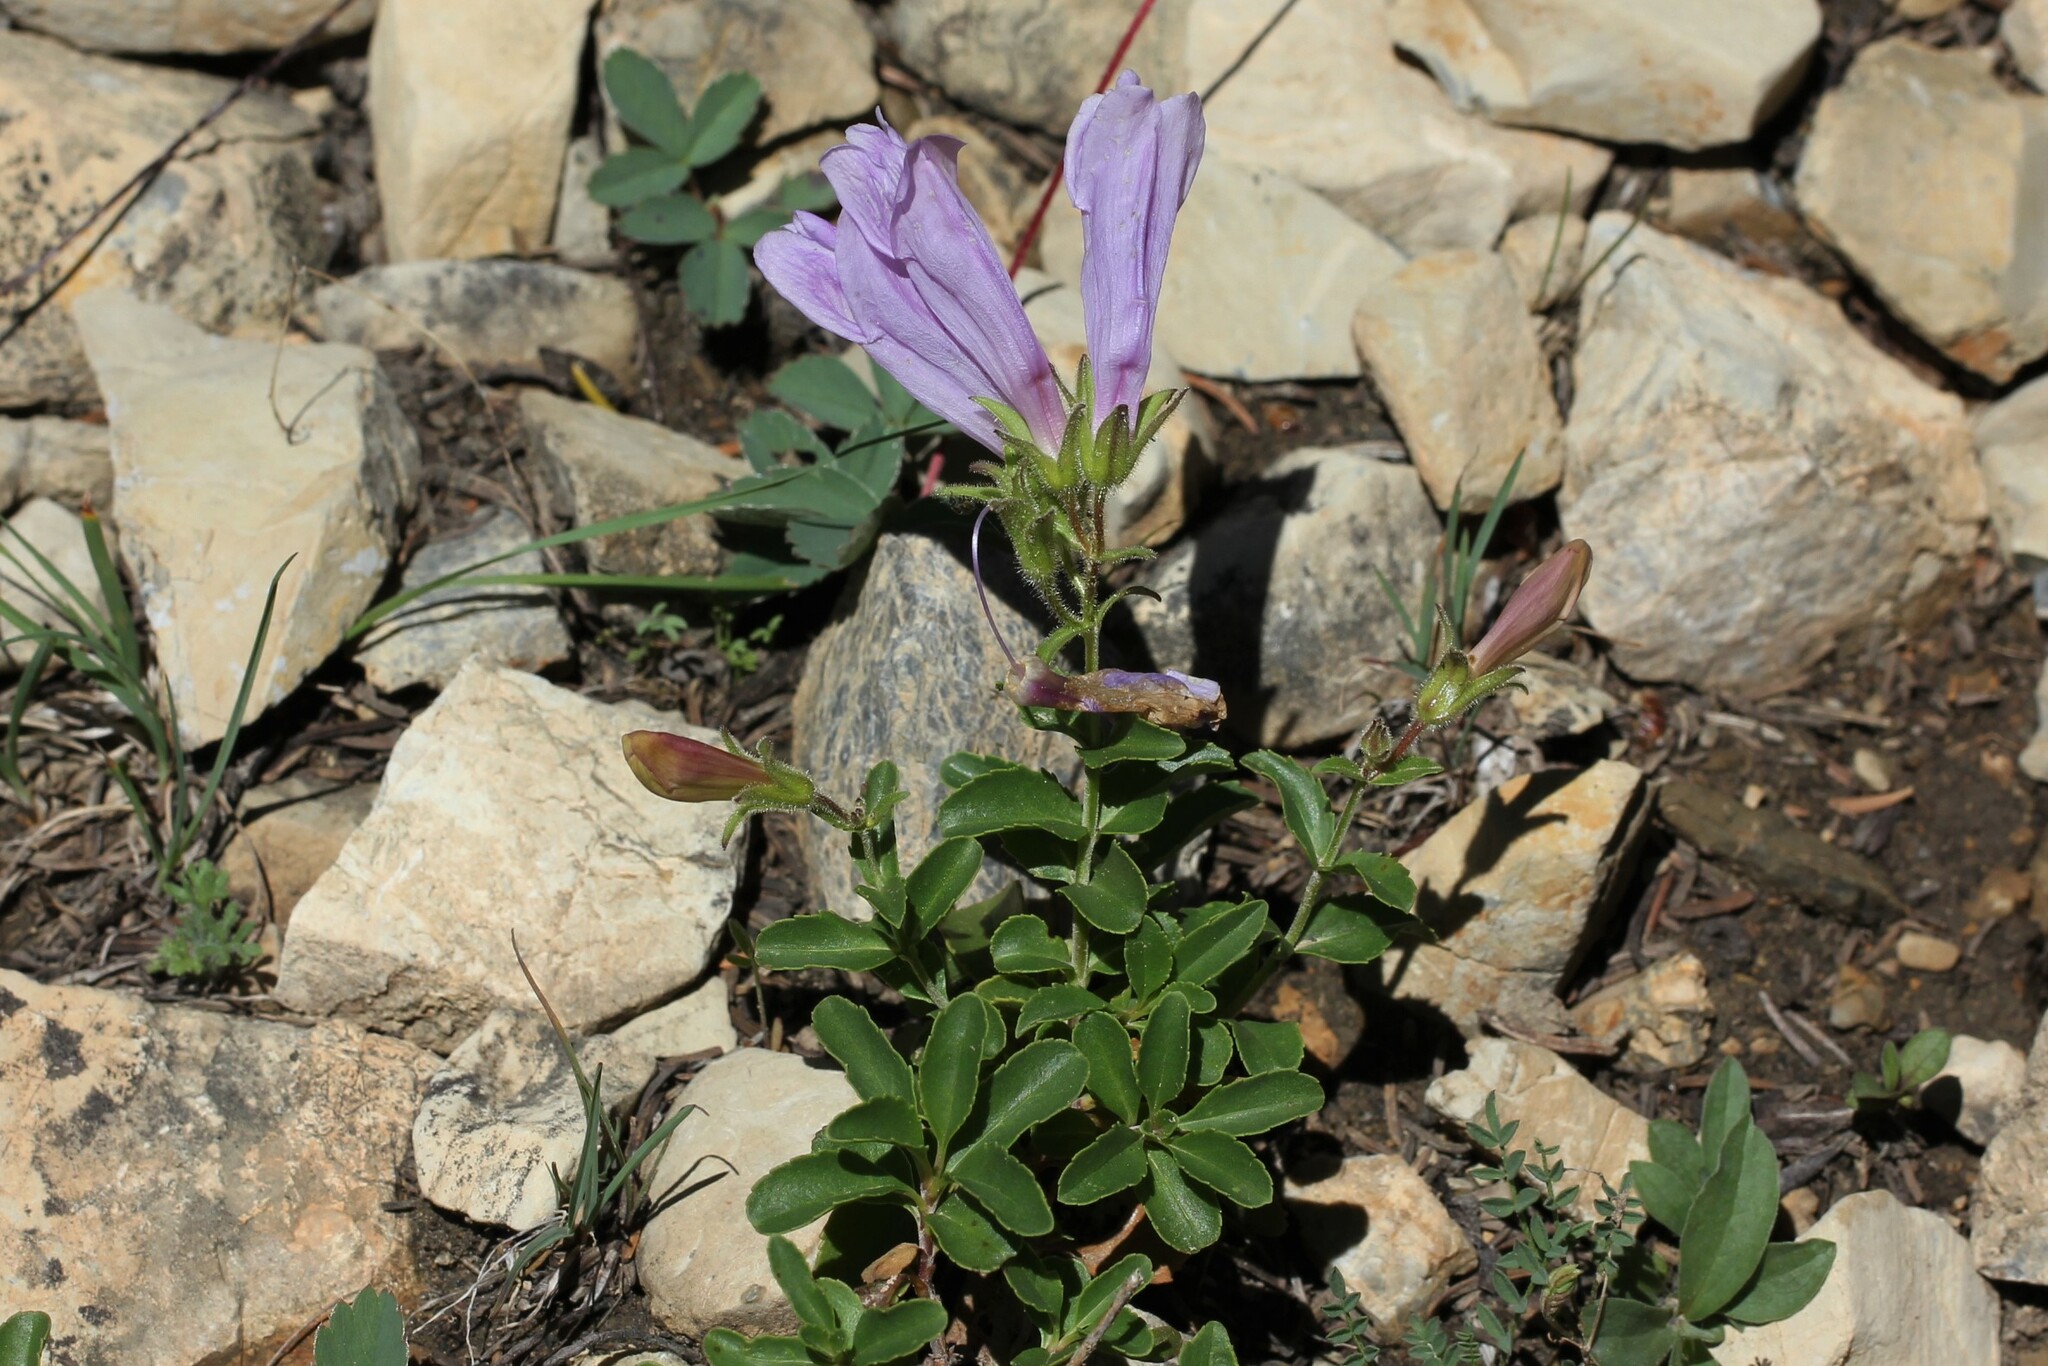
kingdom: Plantae
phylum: Tracheophyta
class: Magnoliopsida
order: Lamiales
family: Plantaginaceae
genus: Penstemon
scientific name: Penstemon ellipticus
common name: Alpine beardtongue
